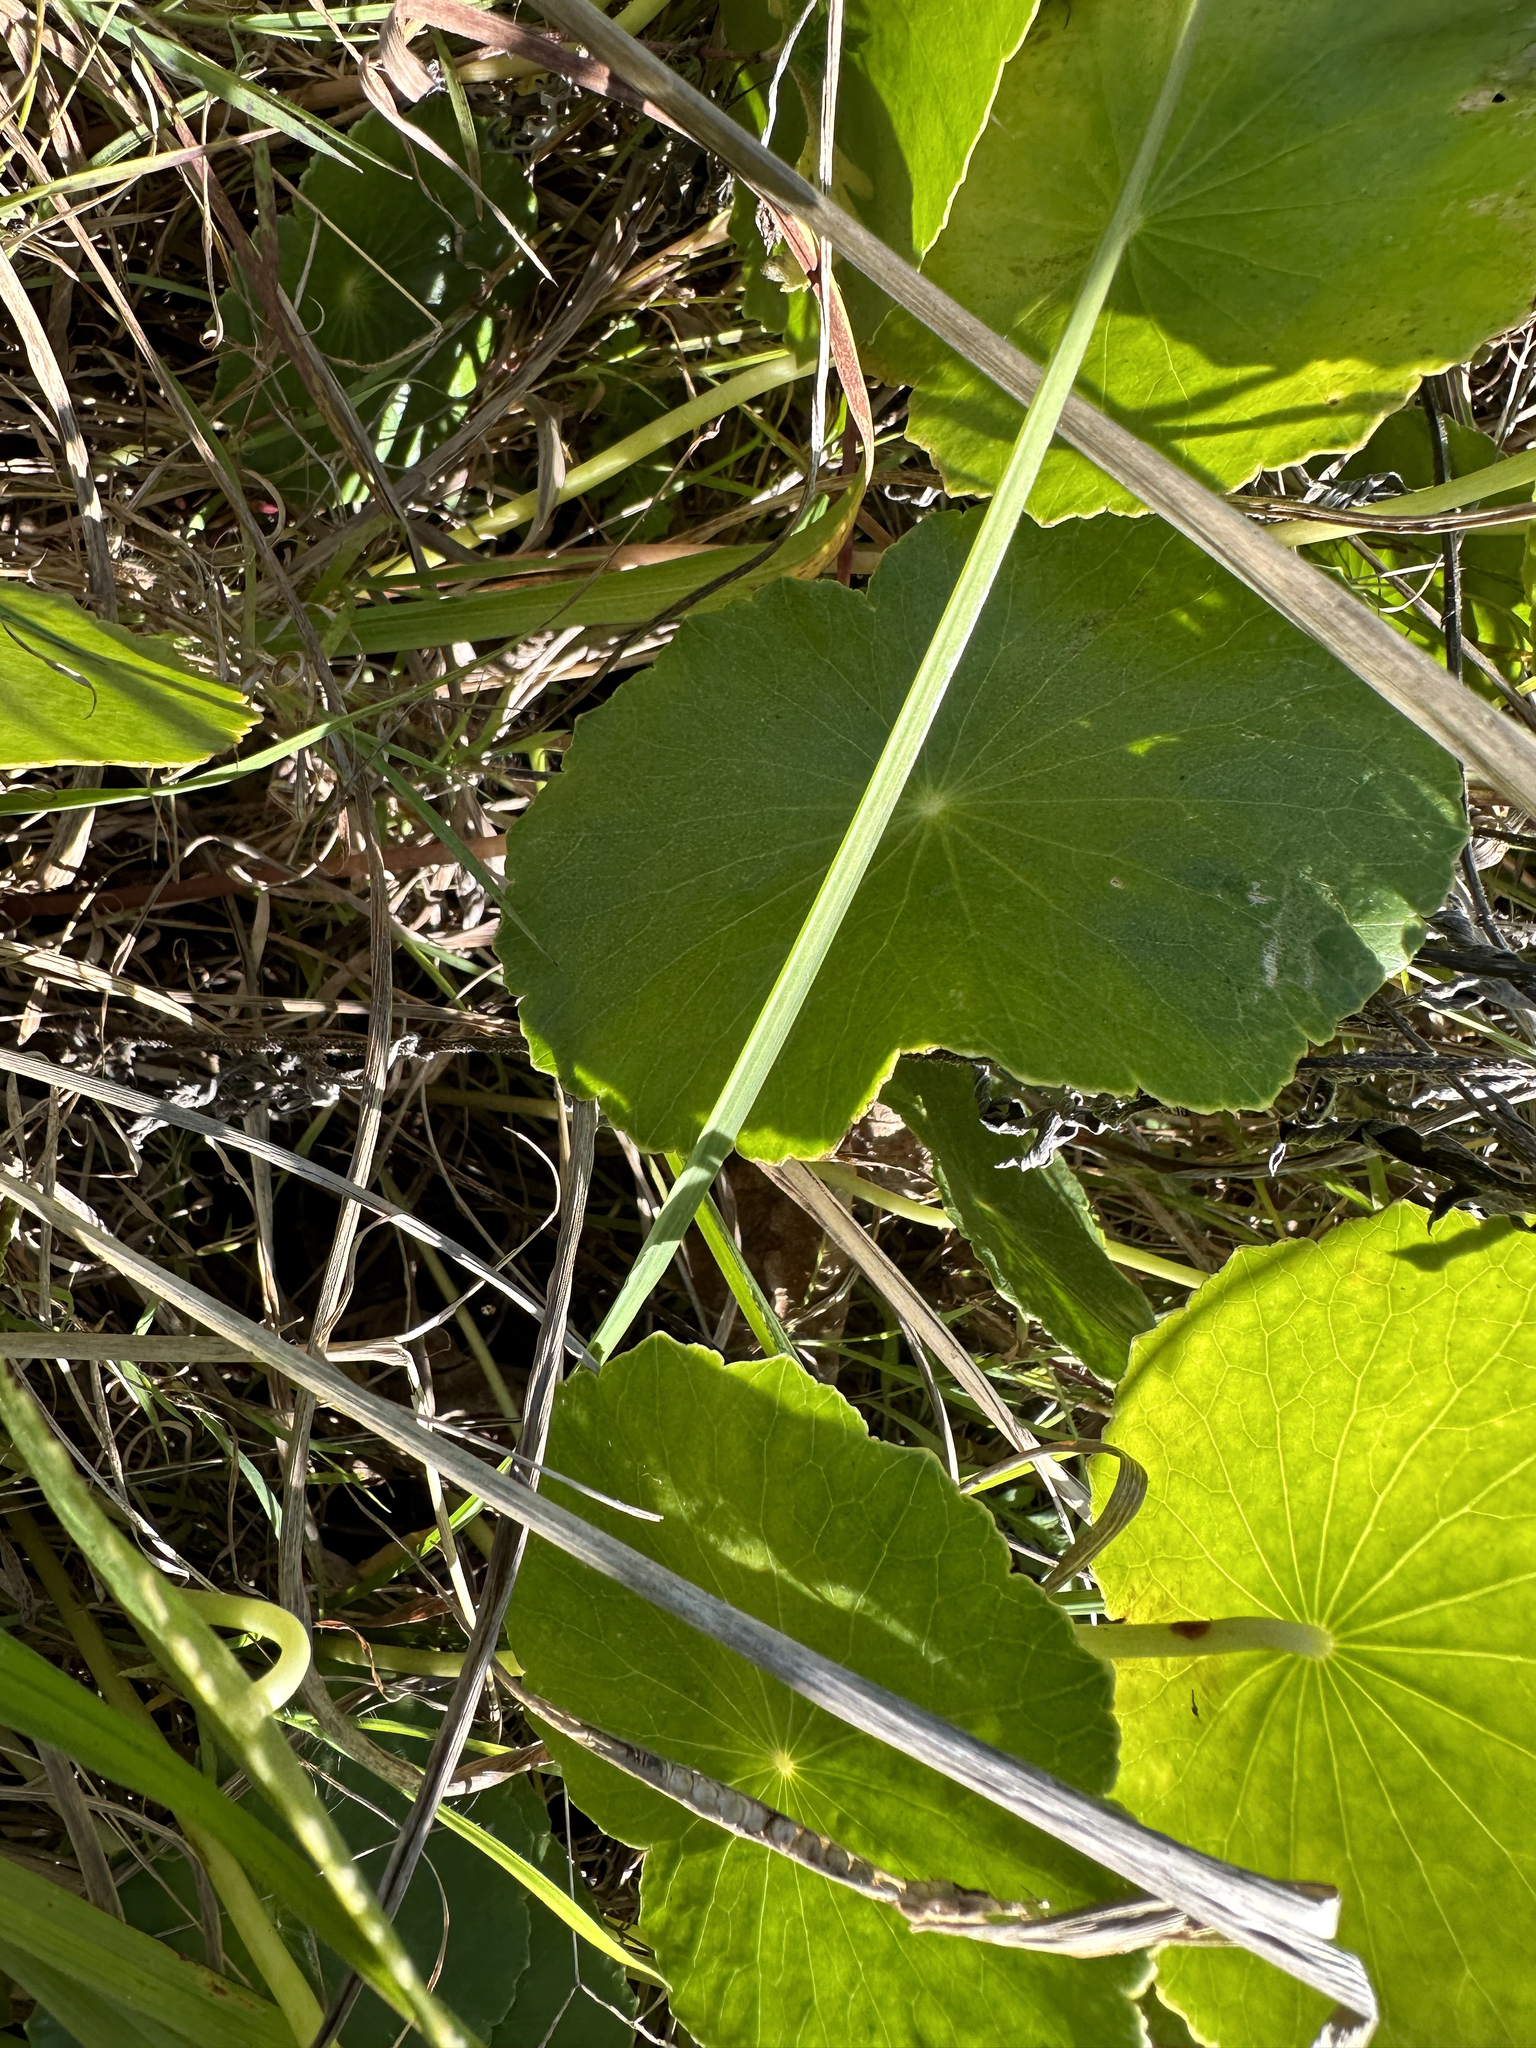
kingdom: Plantae
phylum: Tracheophyta
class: Magnoliopsida
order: Apiales
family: Araliaceae
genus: Hydrocotyle
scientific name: Hydrocotyle bonariensis
